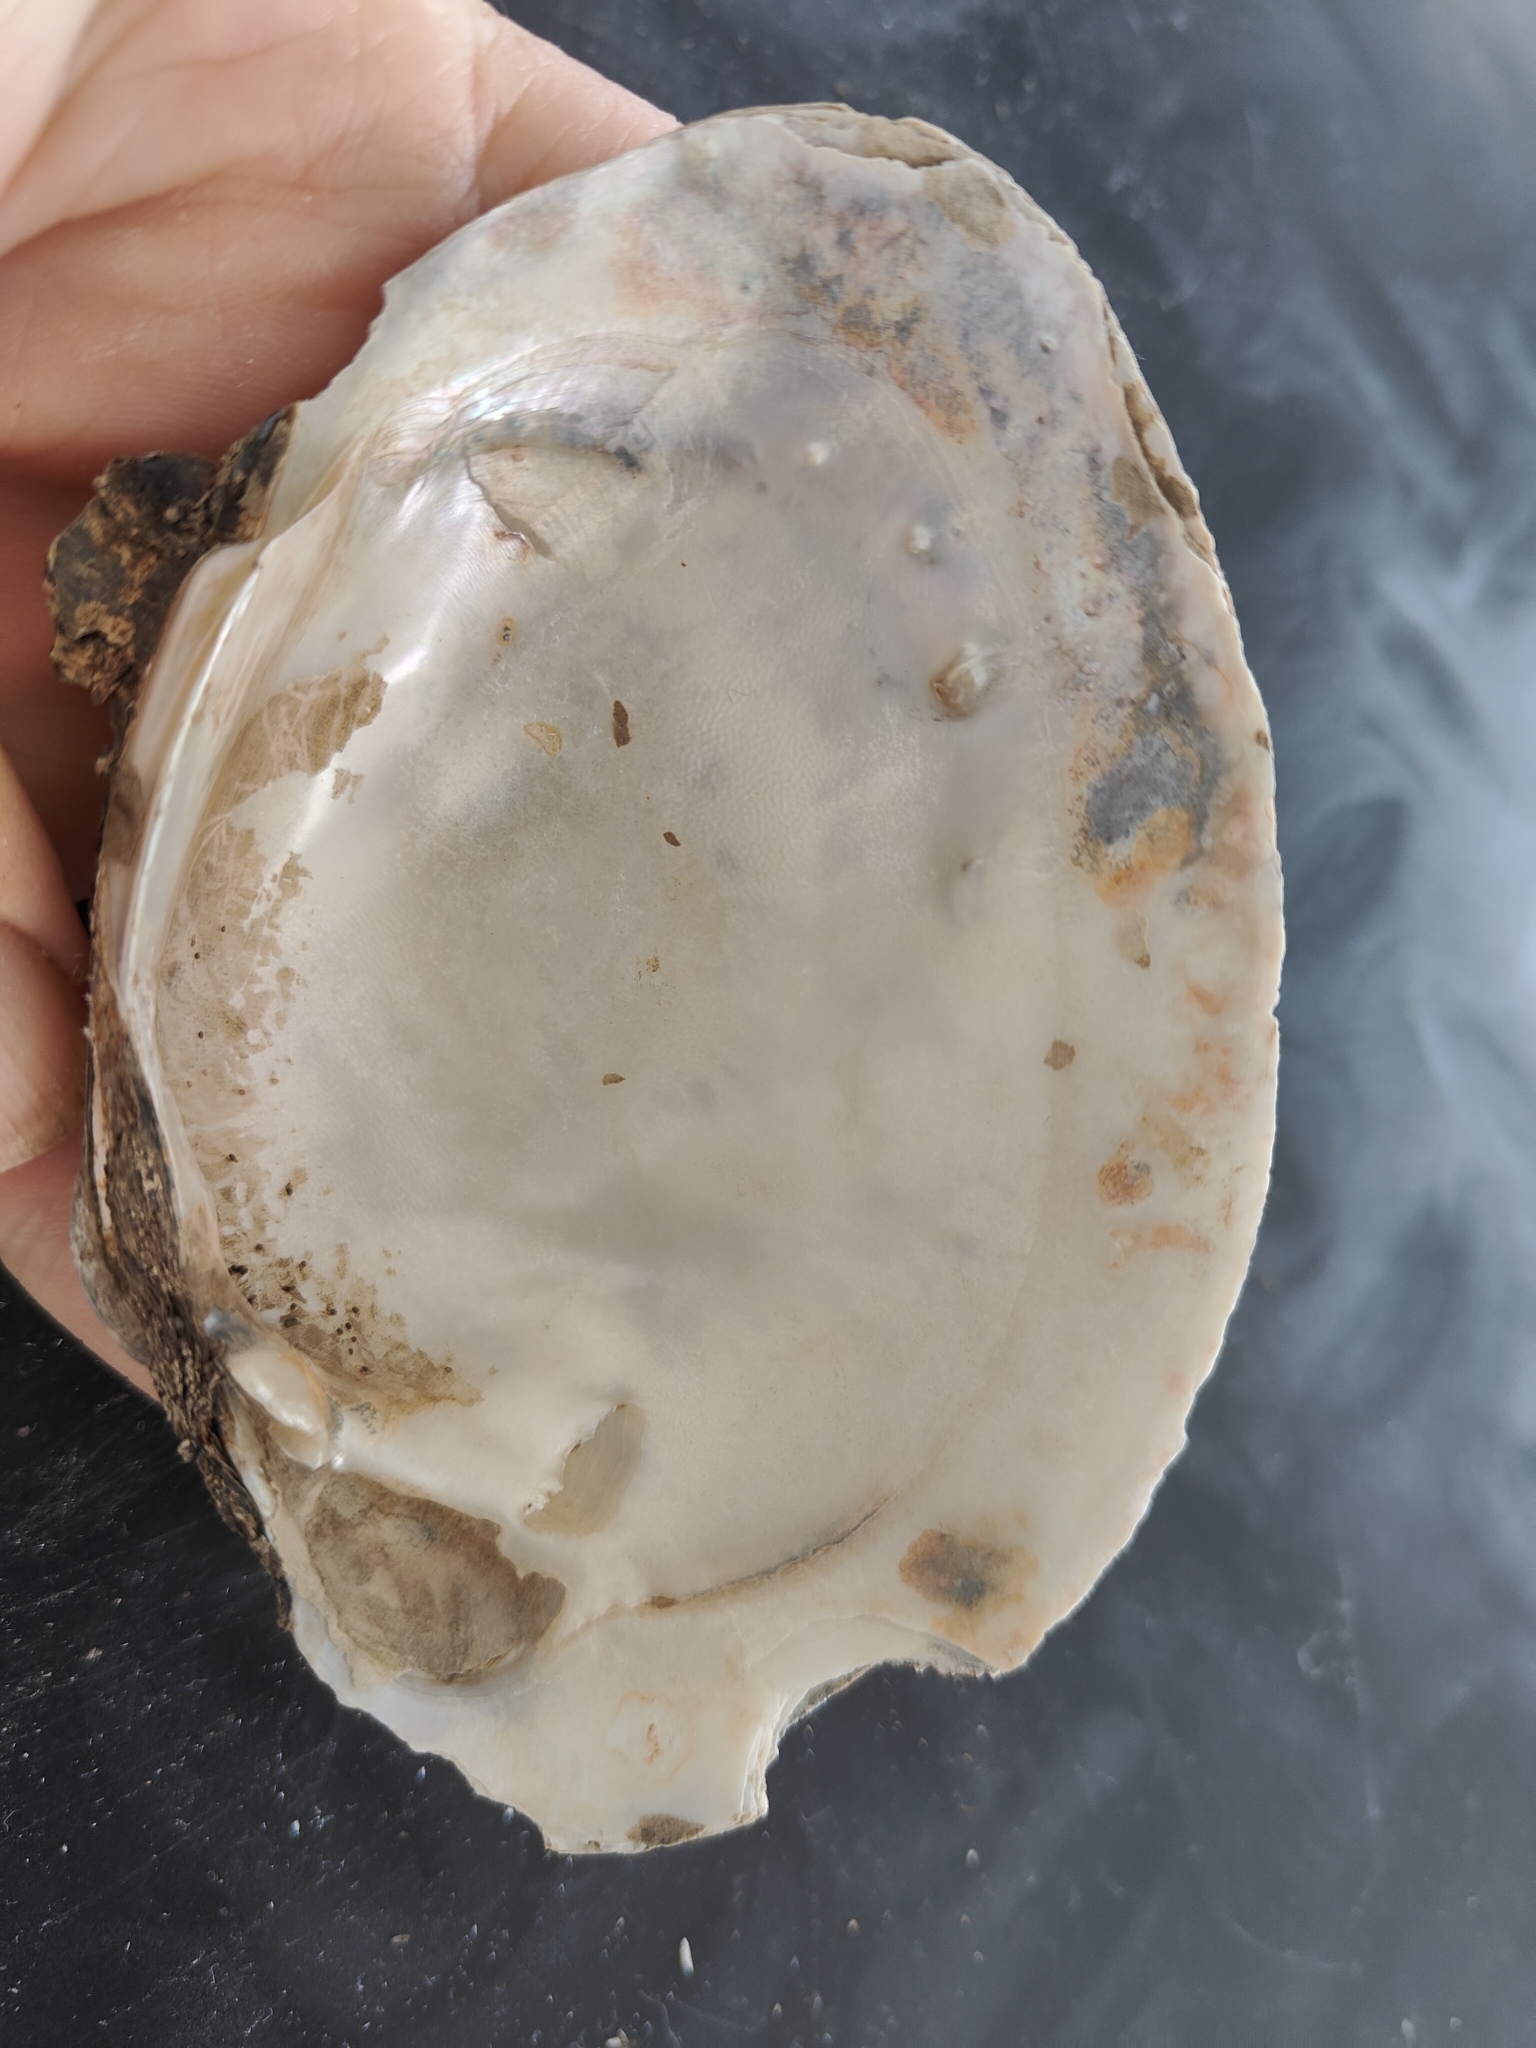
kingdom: Animalia
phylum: Mollusca
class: Bivalvia
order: Unionida
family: Unionidae
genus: Lampsilis
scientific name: Lampsilis cardium
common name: Plain pocketbook
